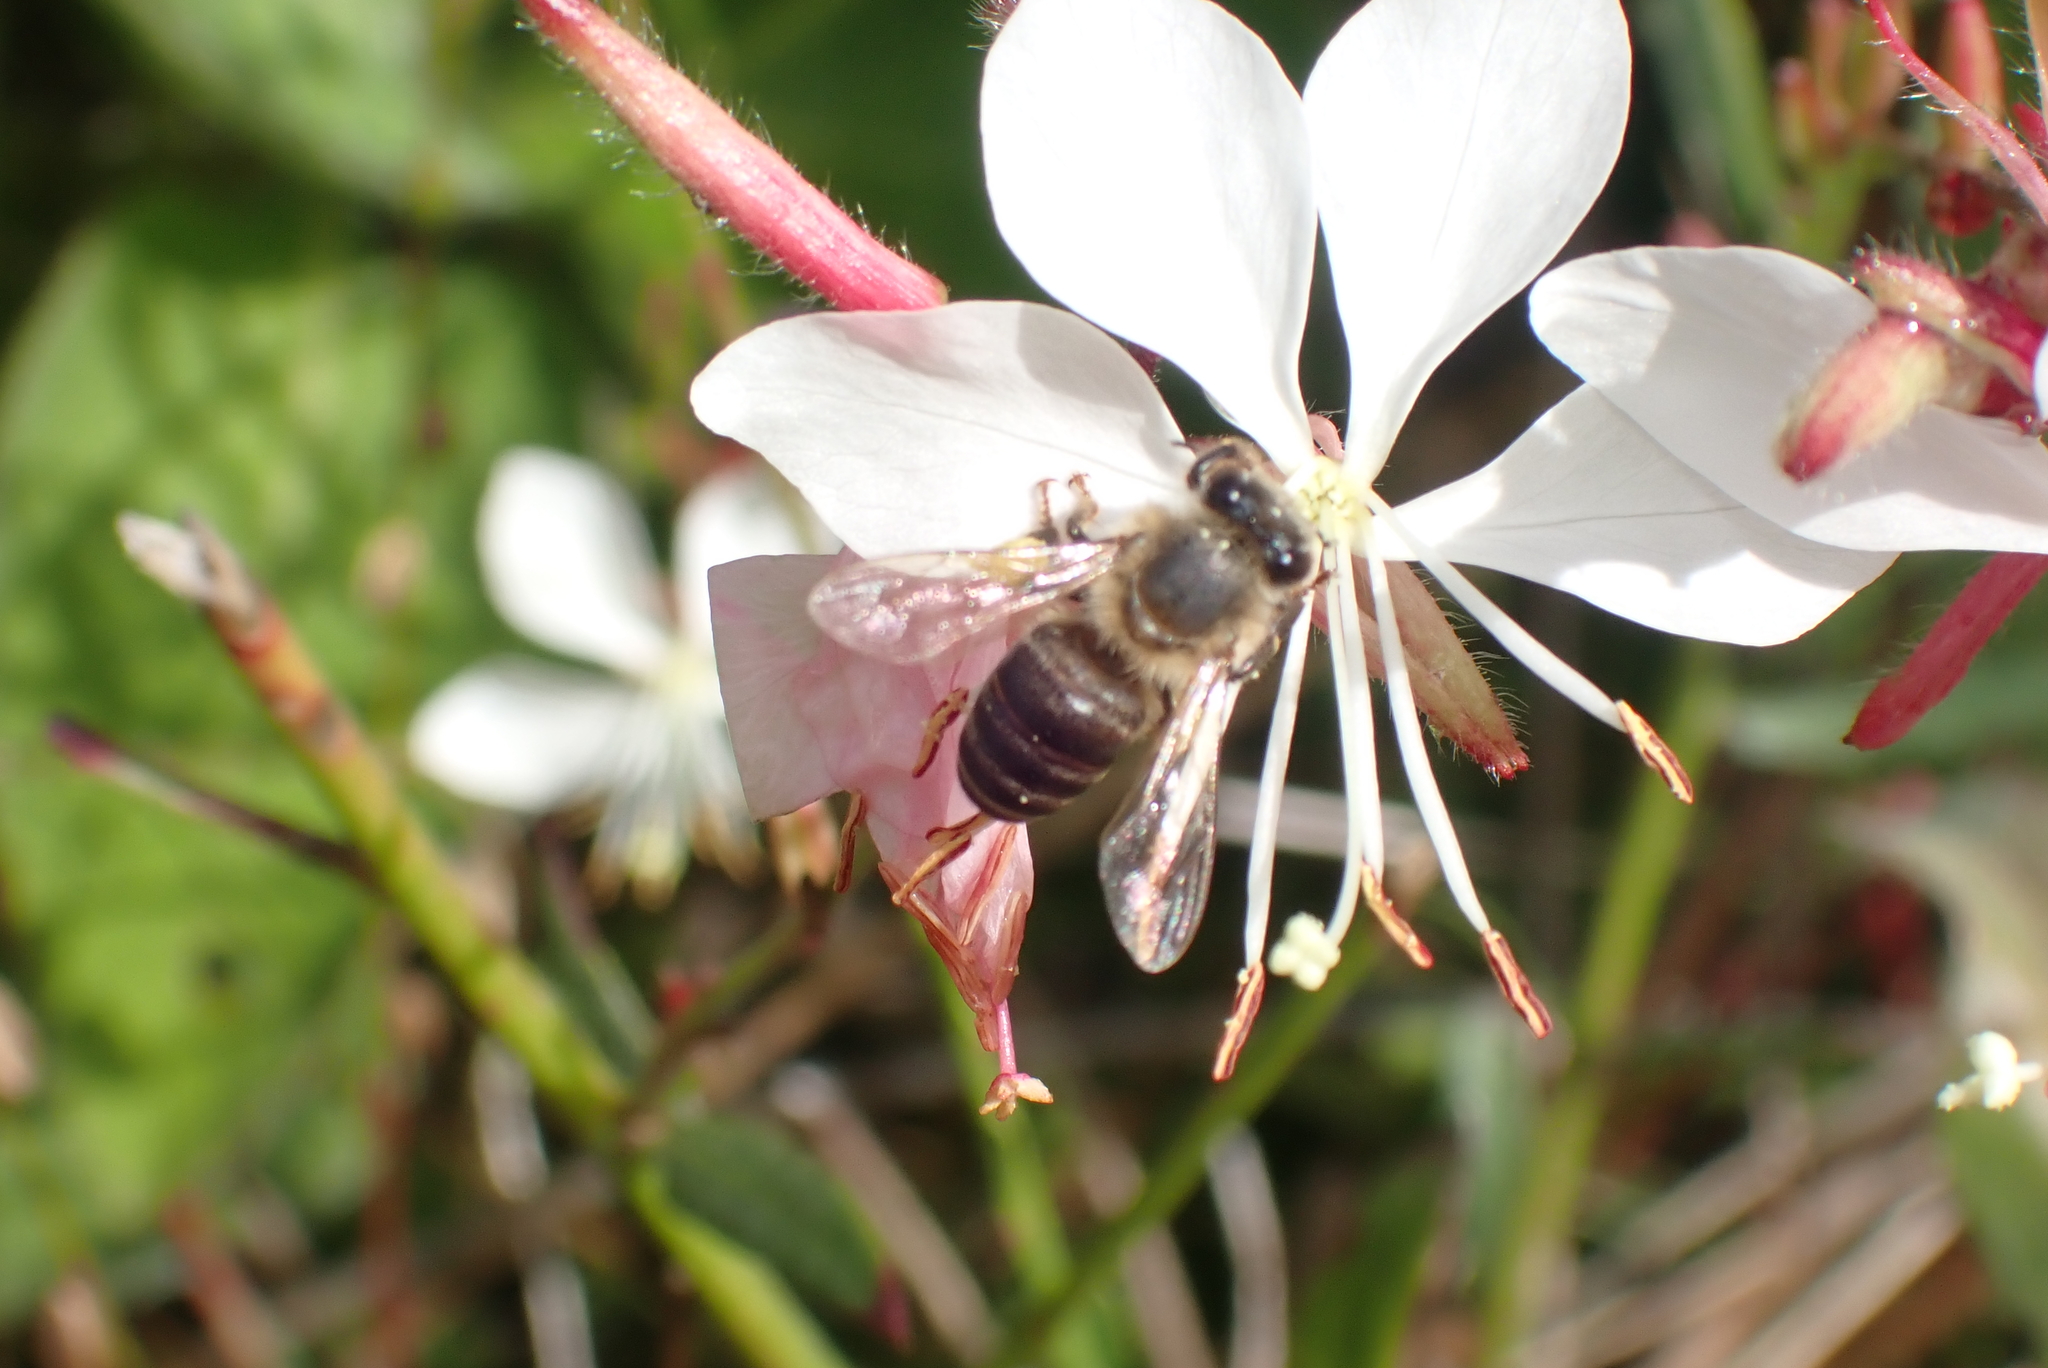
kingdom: Plantae
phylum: Tracheophyta
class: Magnoliopsida
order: Myrtales
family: Onagraceae
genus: Oenothera
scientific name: Oenothera lindheimeri
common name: Lindheimer's beeblossom
